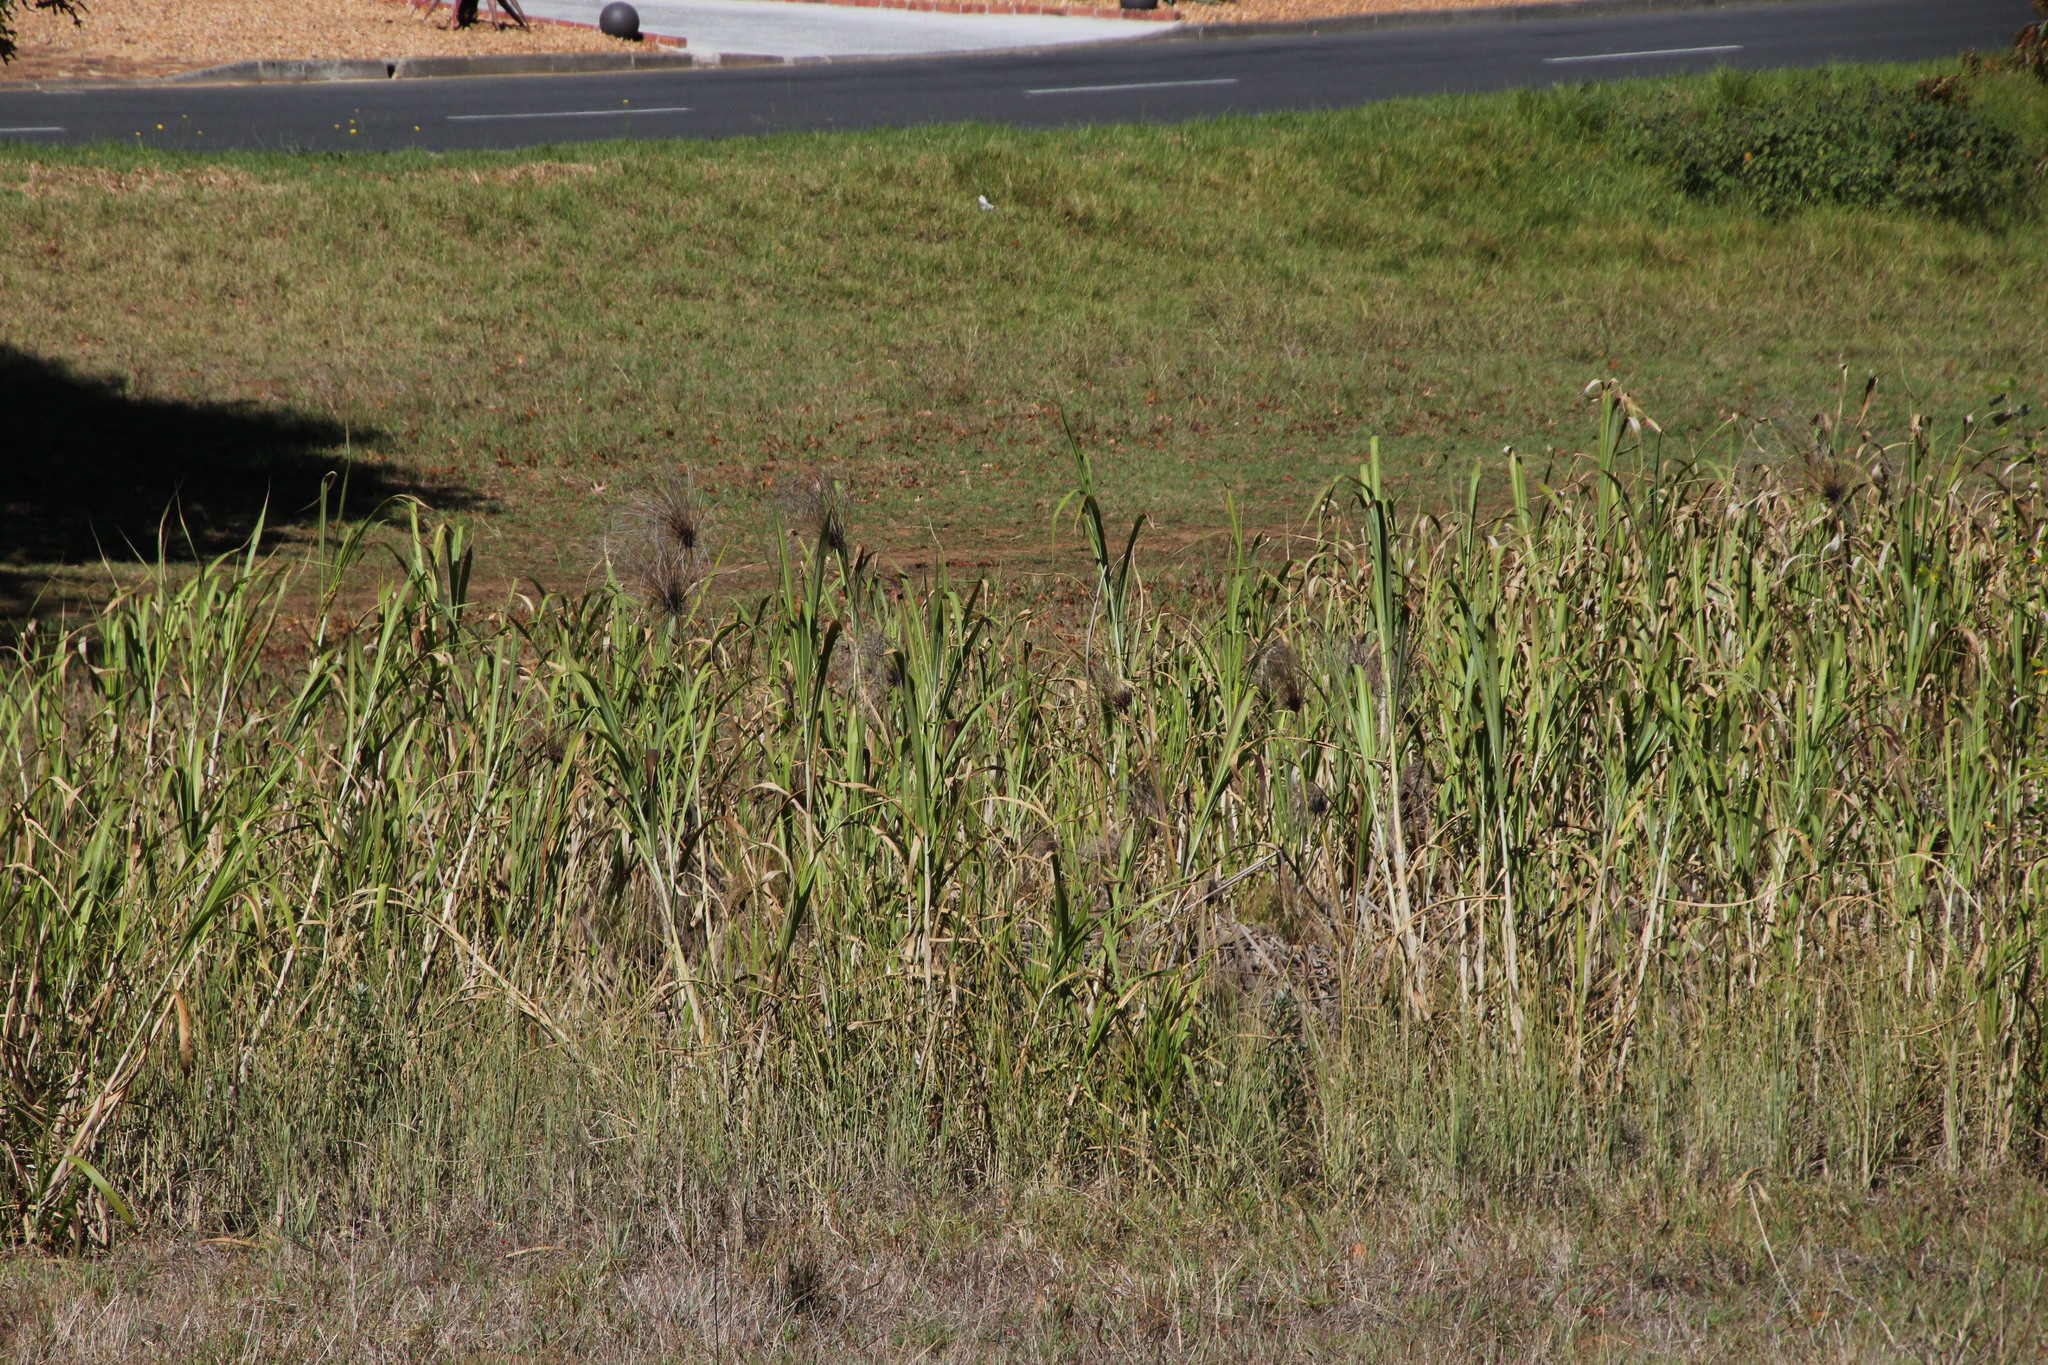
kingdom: Plantae
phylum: Tracheophyta
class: Liliopsida
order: Poales
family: Cyperaceae
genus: Cyperus
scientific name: Cyperus papyrus
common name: Papyrus
